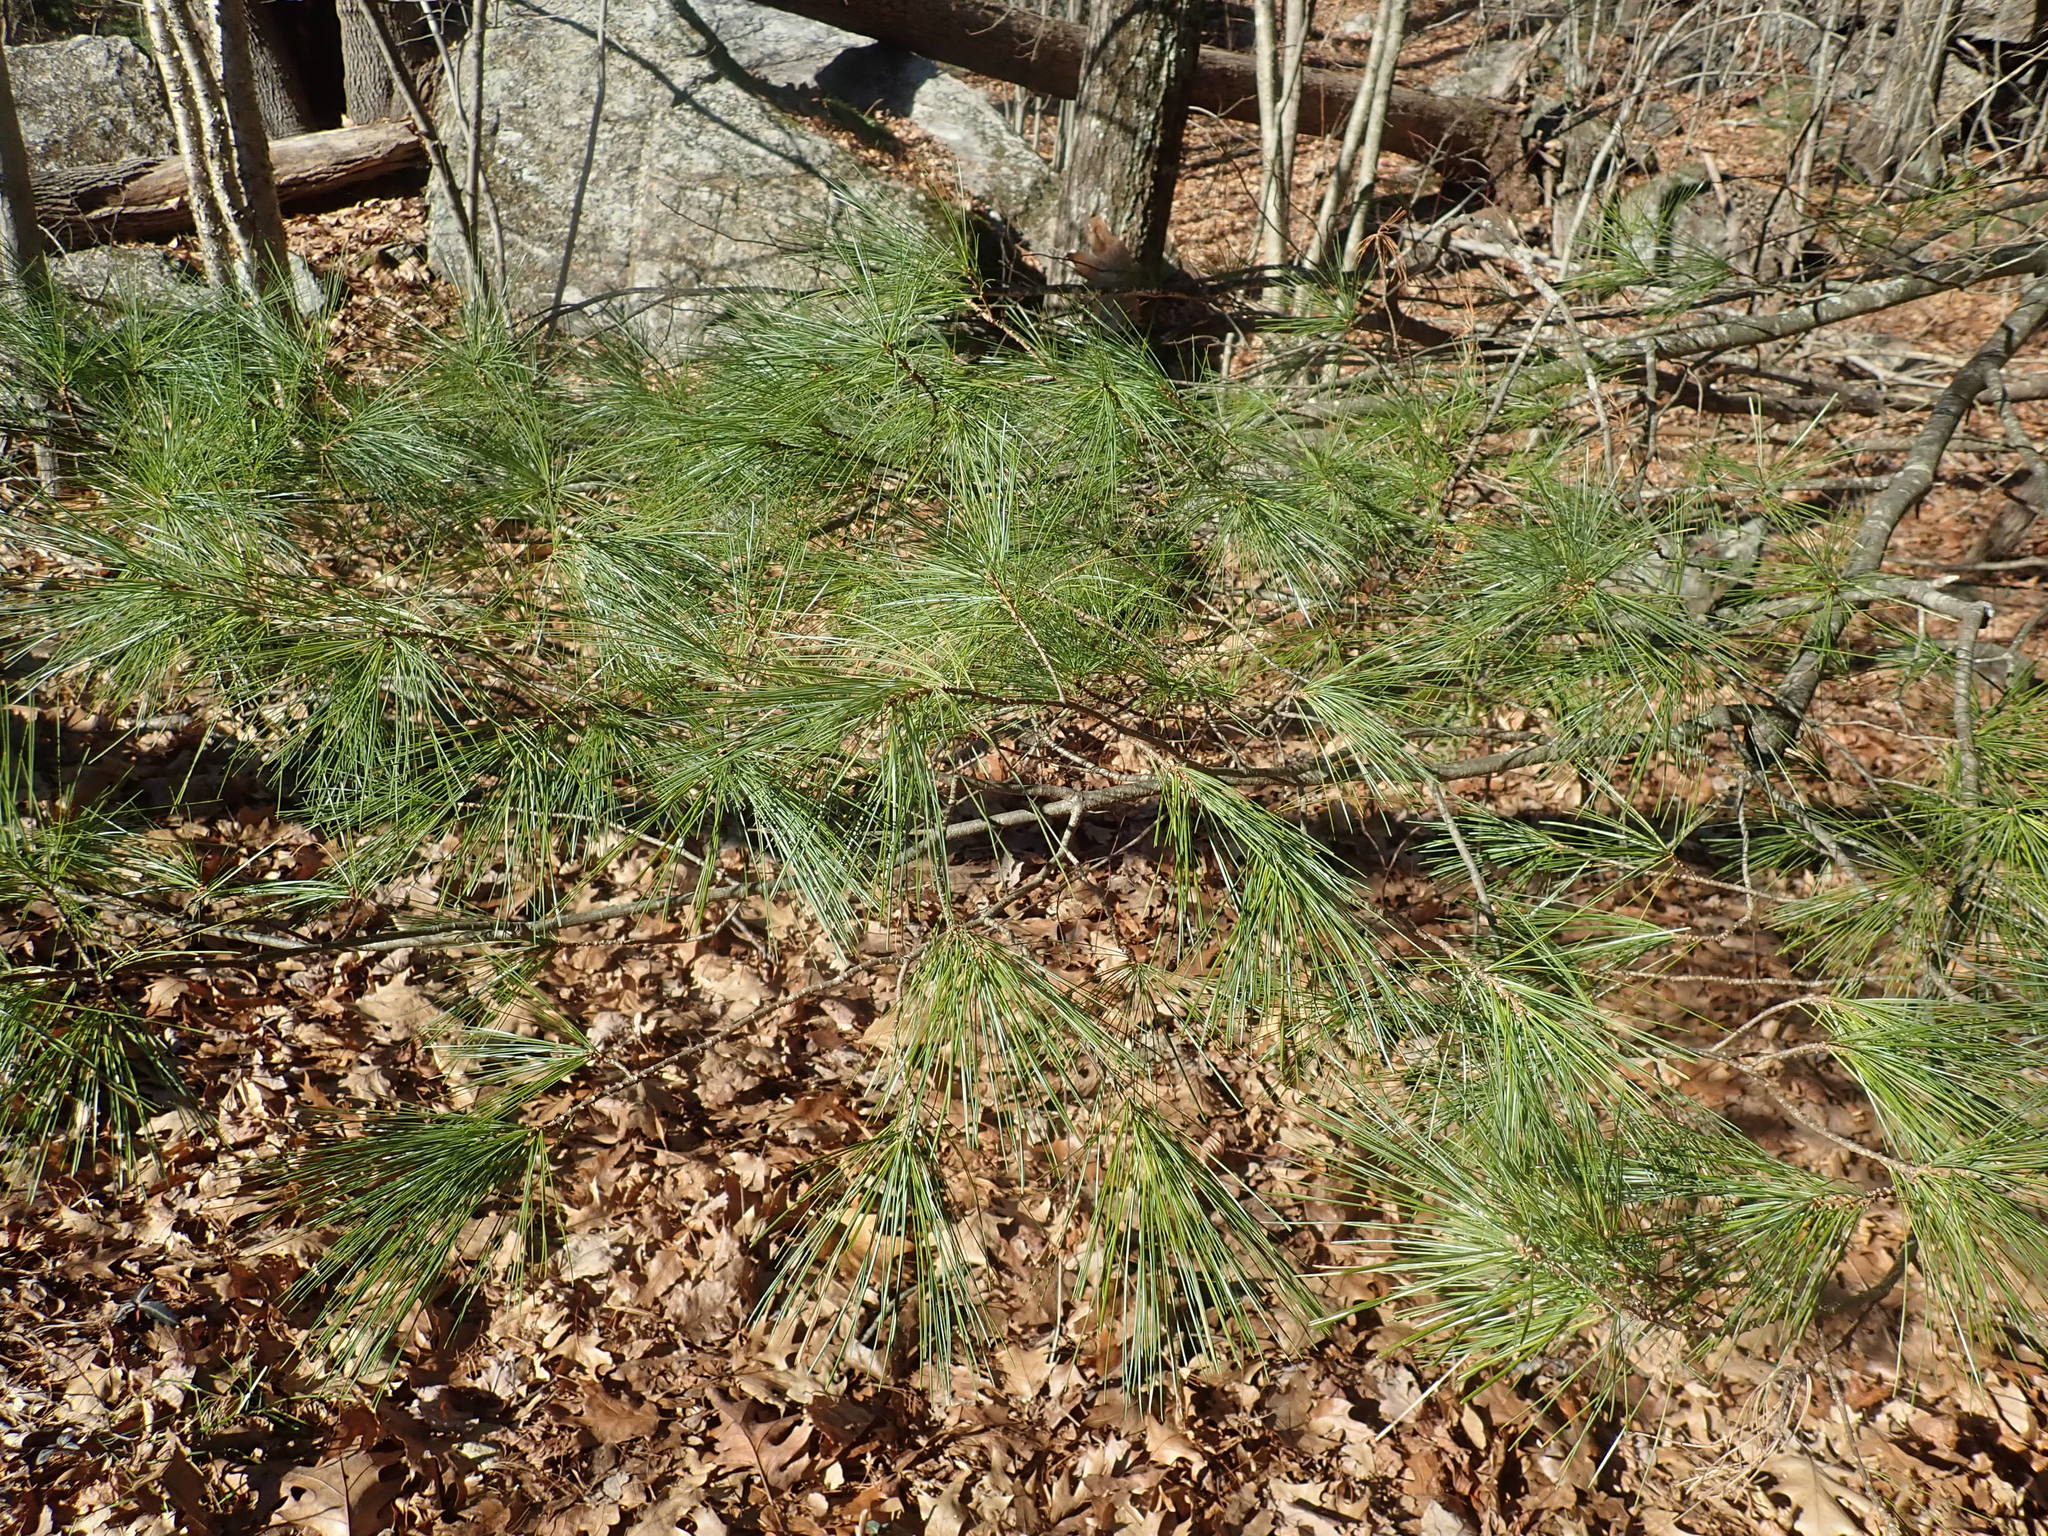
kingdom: Plantae
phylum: Tracheophyta
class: Pinopsida
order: Pinales
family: Pinaceae
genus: Pinus
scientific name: Pinus strobus
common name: Weymouth pine
